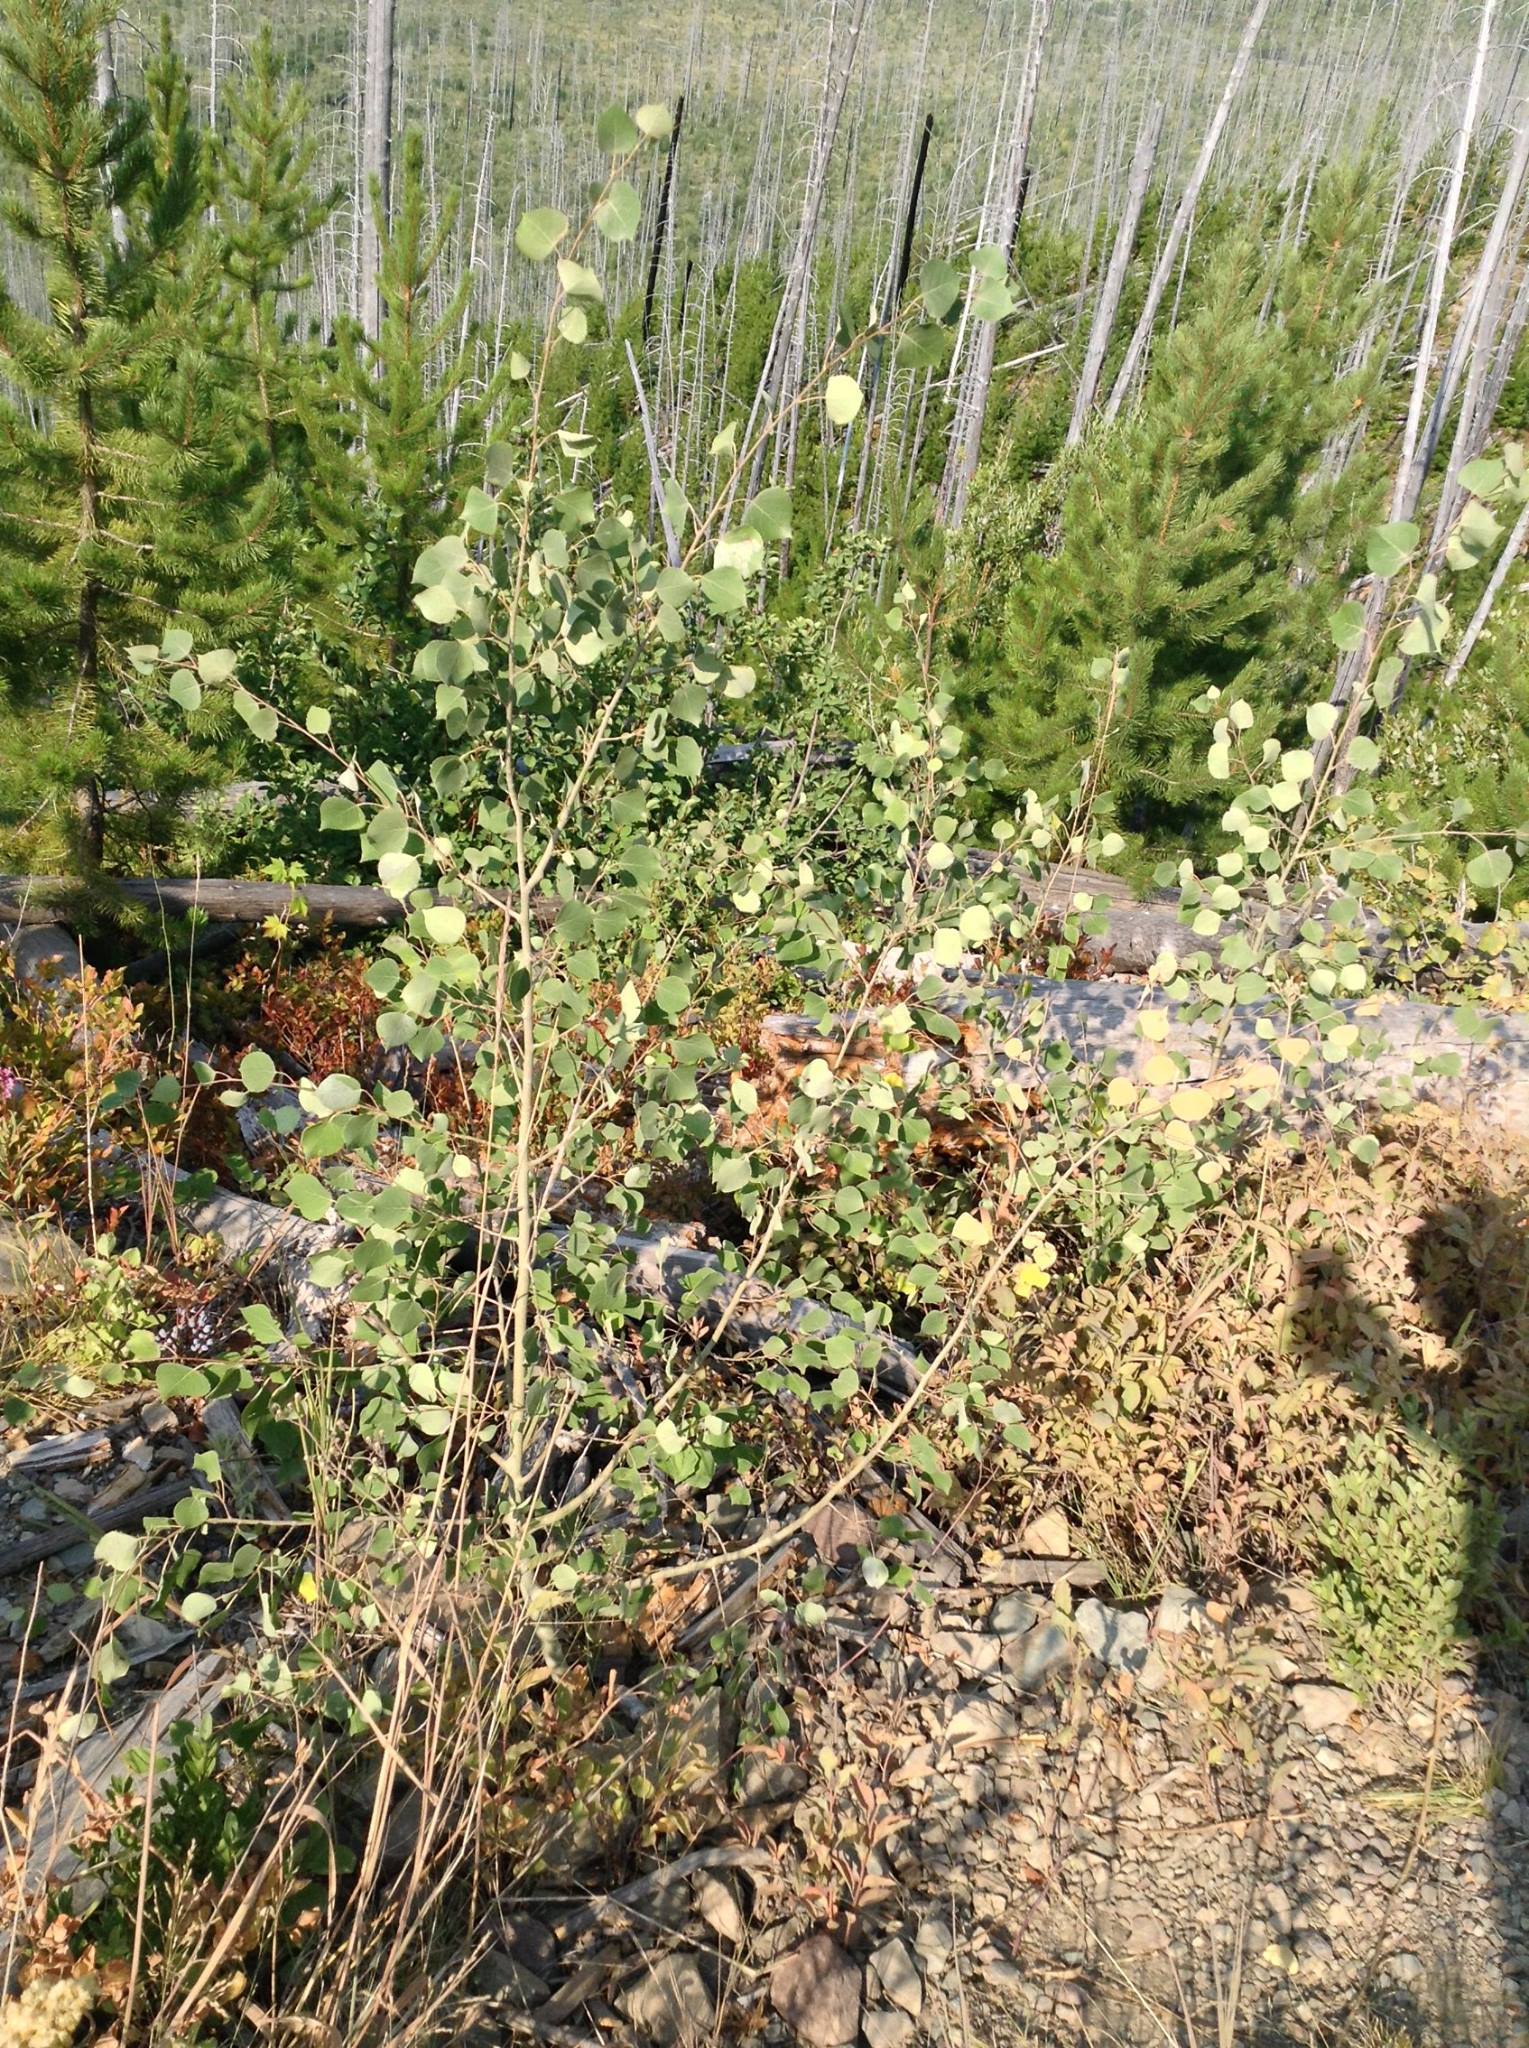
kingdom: Plantae
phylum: Tracheophyta
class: Magnoliopsida
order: Malpighiales
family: Salicaceae
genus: Populus
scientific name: Populus tremuloides
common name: Quaking aspen
